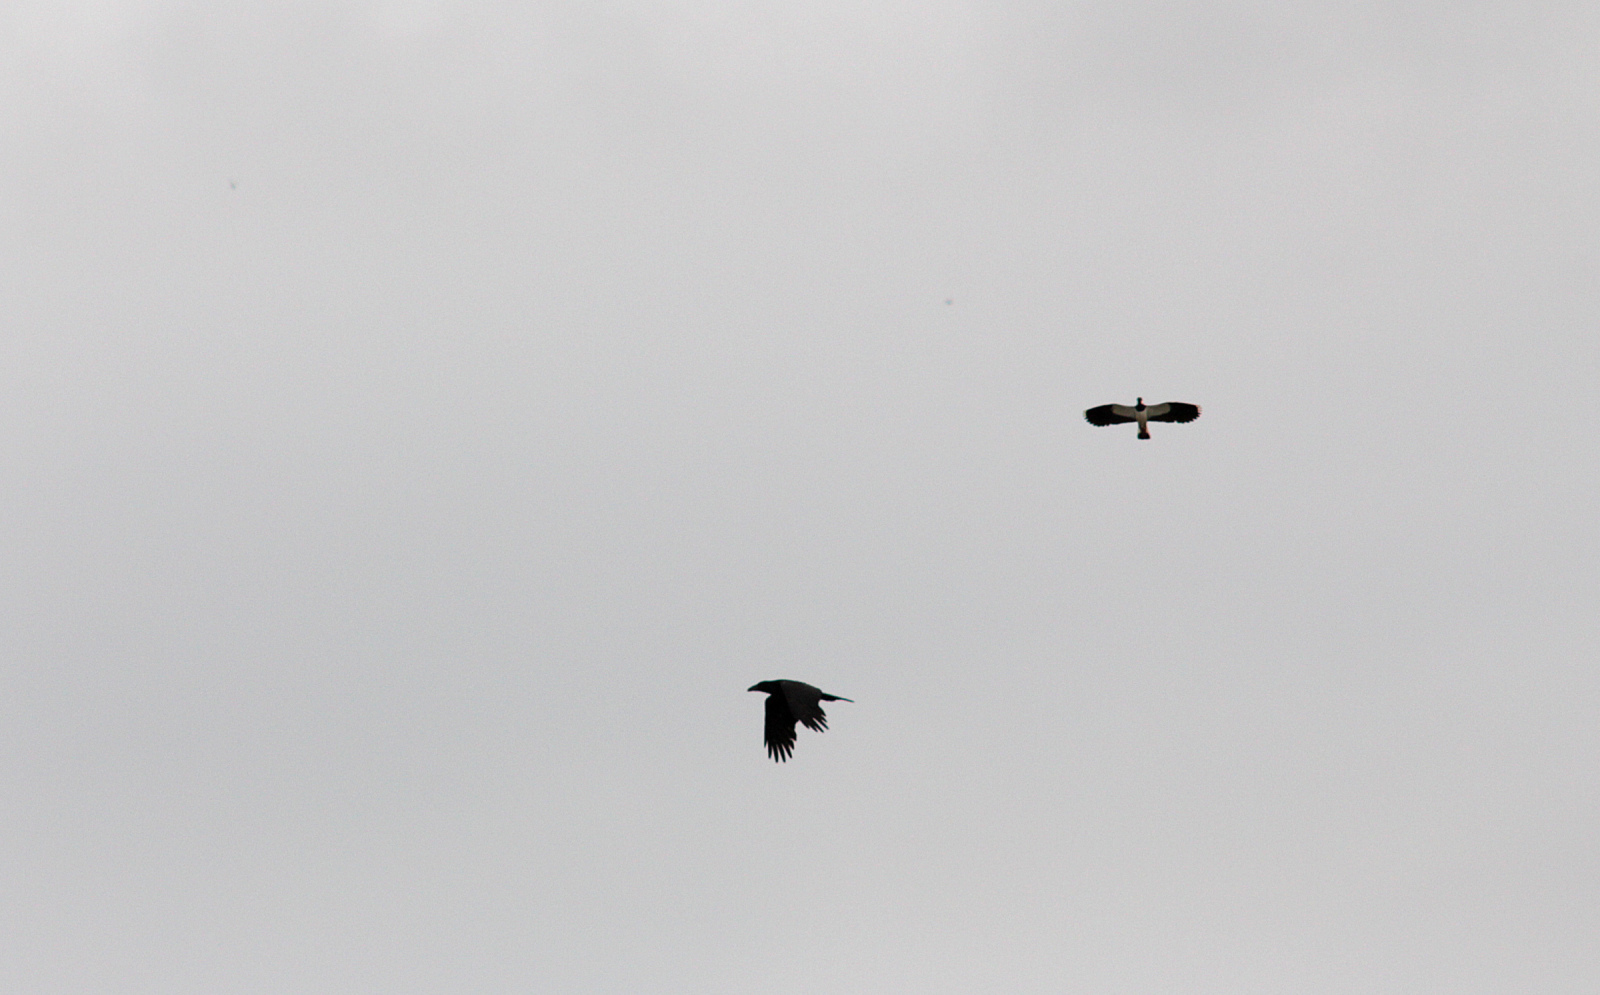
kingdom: Animalia
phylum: Chordata
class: Aves
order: Charadriiformes
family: Charadriidae
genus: Vanellus
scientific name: Vanellus vanellus
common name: Northern lapwing
